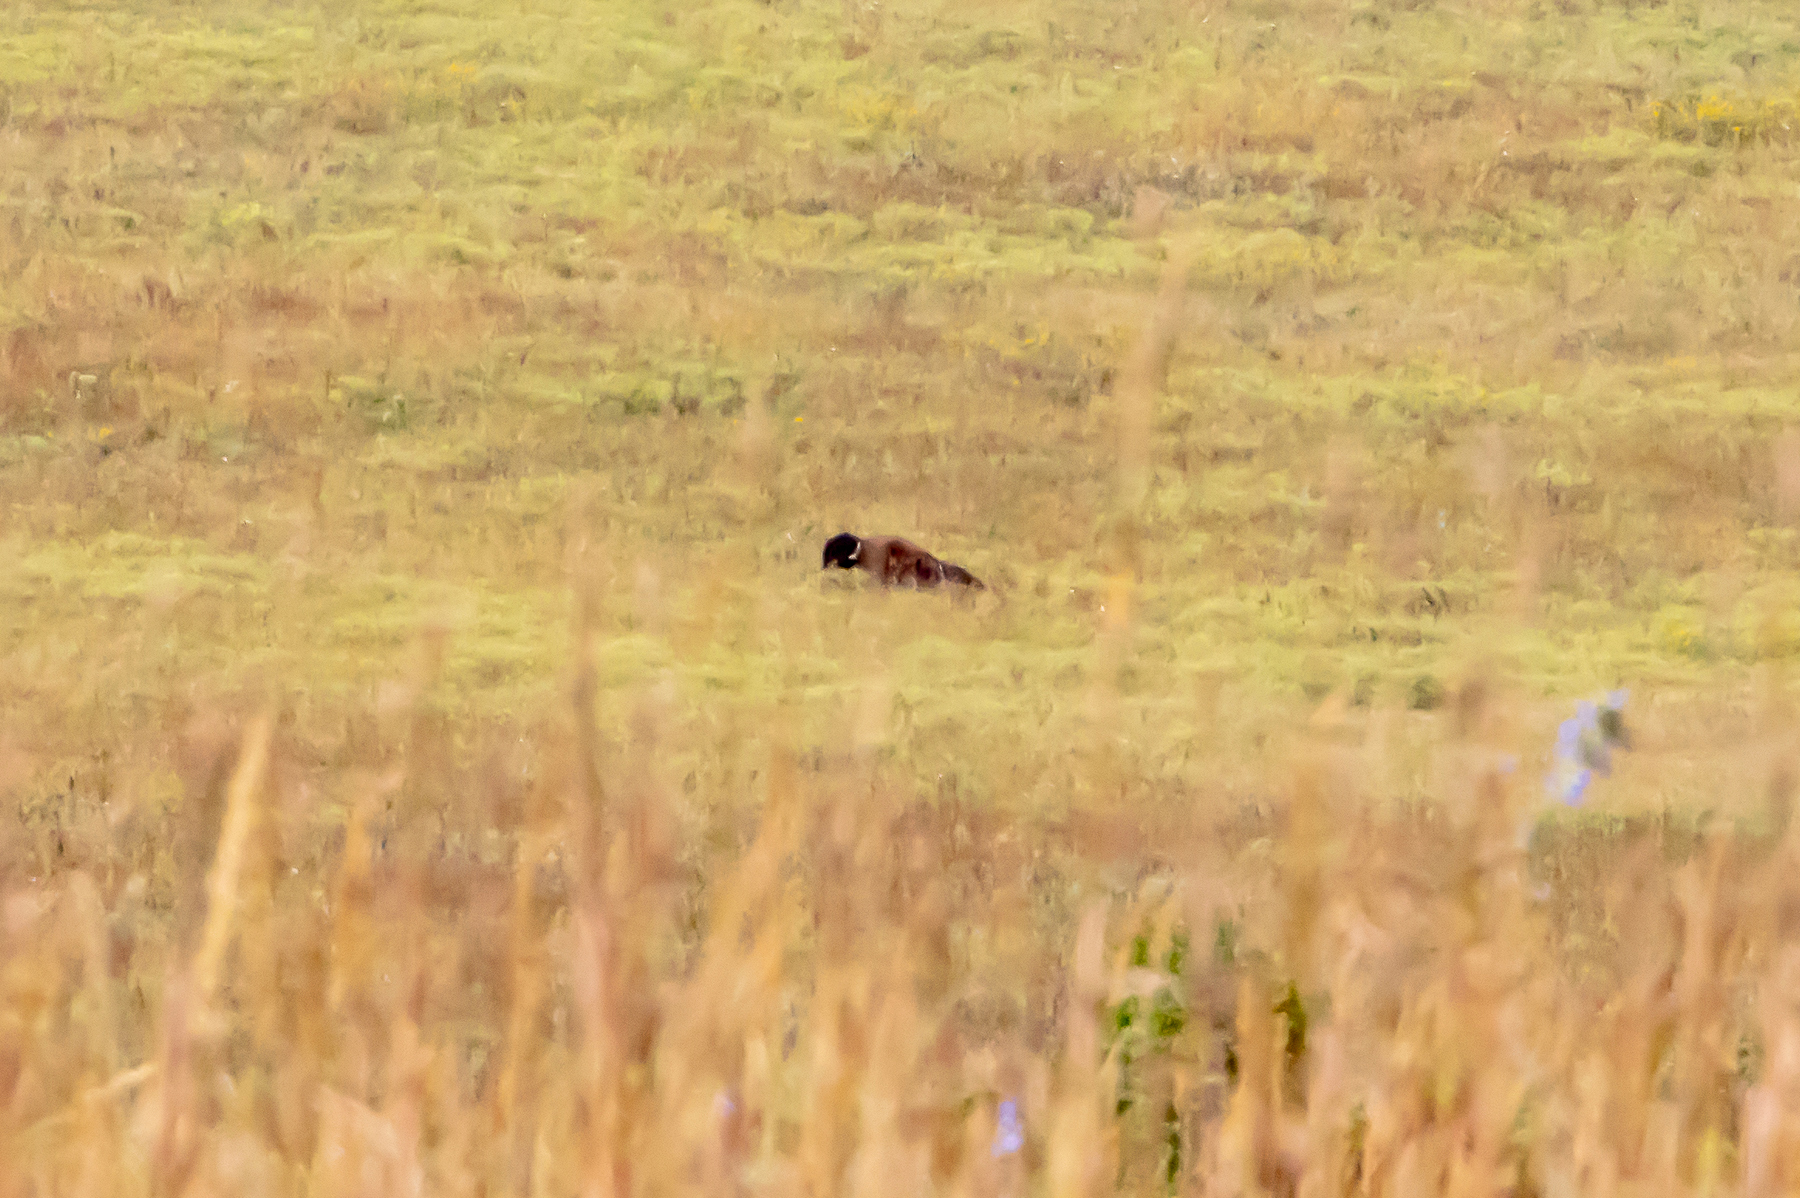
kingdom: Animalia
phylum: Chordata
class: Mammalia
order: Artiodactyla
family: Bovidae
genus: Bison
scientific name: Bison bison
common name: American bison
